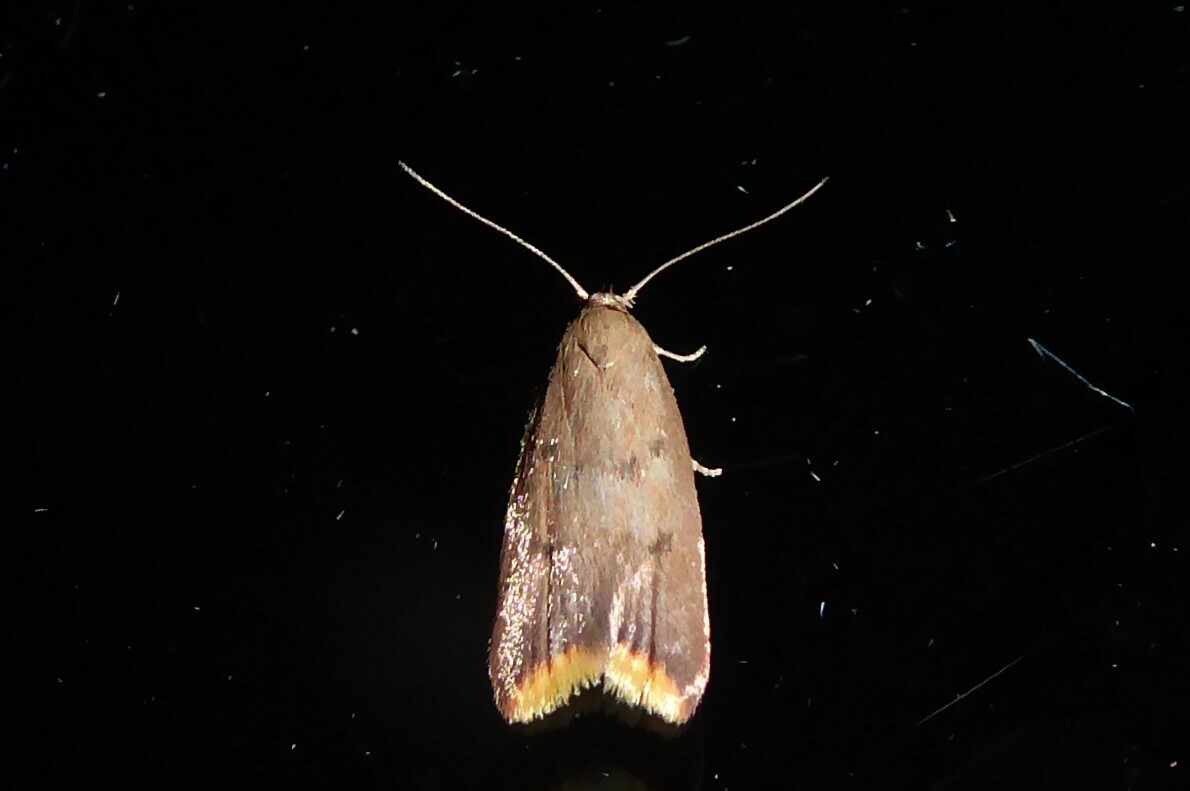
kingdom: Animalia
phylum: Arthropoda
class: Insecta
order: Lepidoptera
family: Oecophoridae
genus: Tachystola
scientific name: Tachystola acroxantha
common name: Ruddy streak
